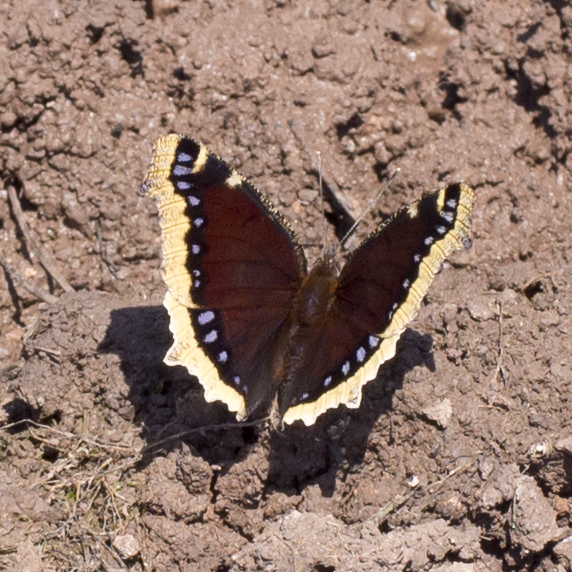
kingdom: Animalia
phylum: Arthropoda
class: Insecta
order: Lepidoptera
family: Nymphalidae
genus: Nymphalis
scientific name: Nymphalis antiopa
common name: Camberwell beauty
